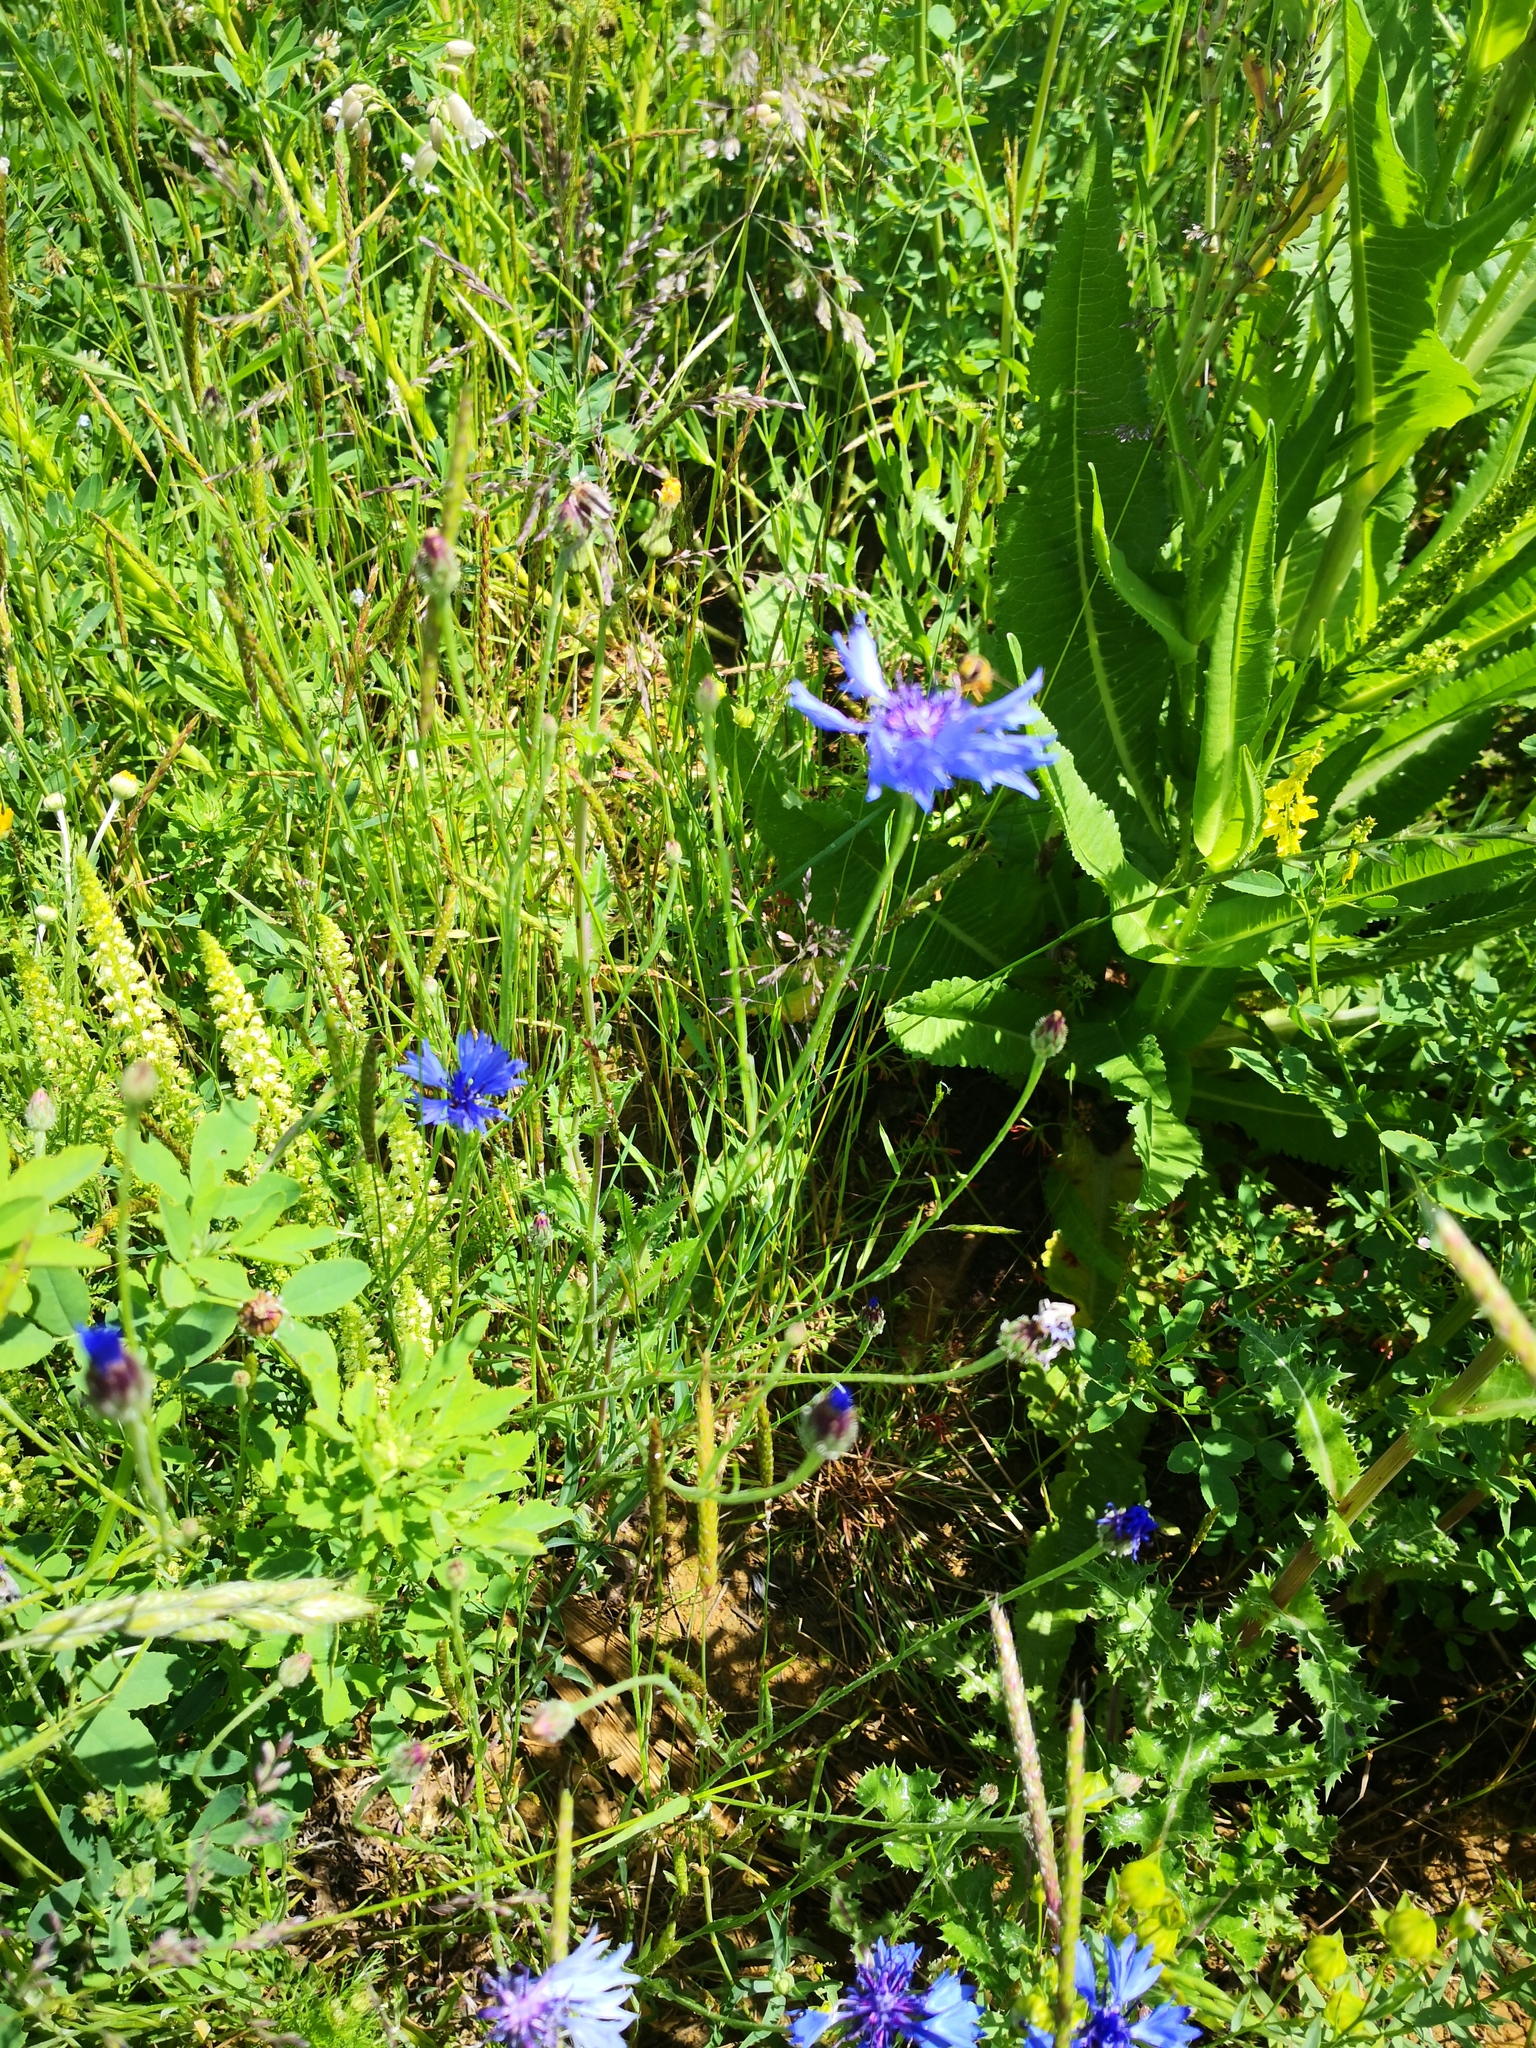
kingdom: Plantae
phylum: Tracheophyta
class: Magnoliopsida
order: Asterales
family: Asteraceae
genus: Centaurea
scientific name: Centaurea cyanus
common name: Cornflower
